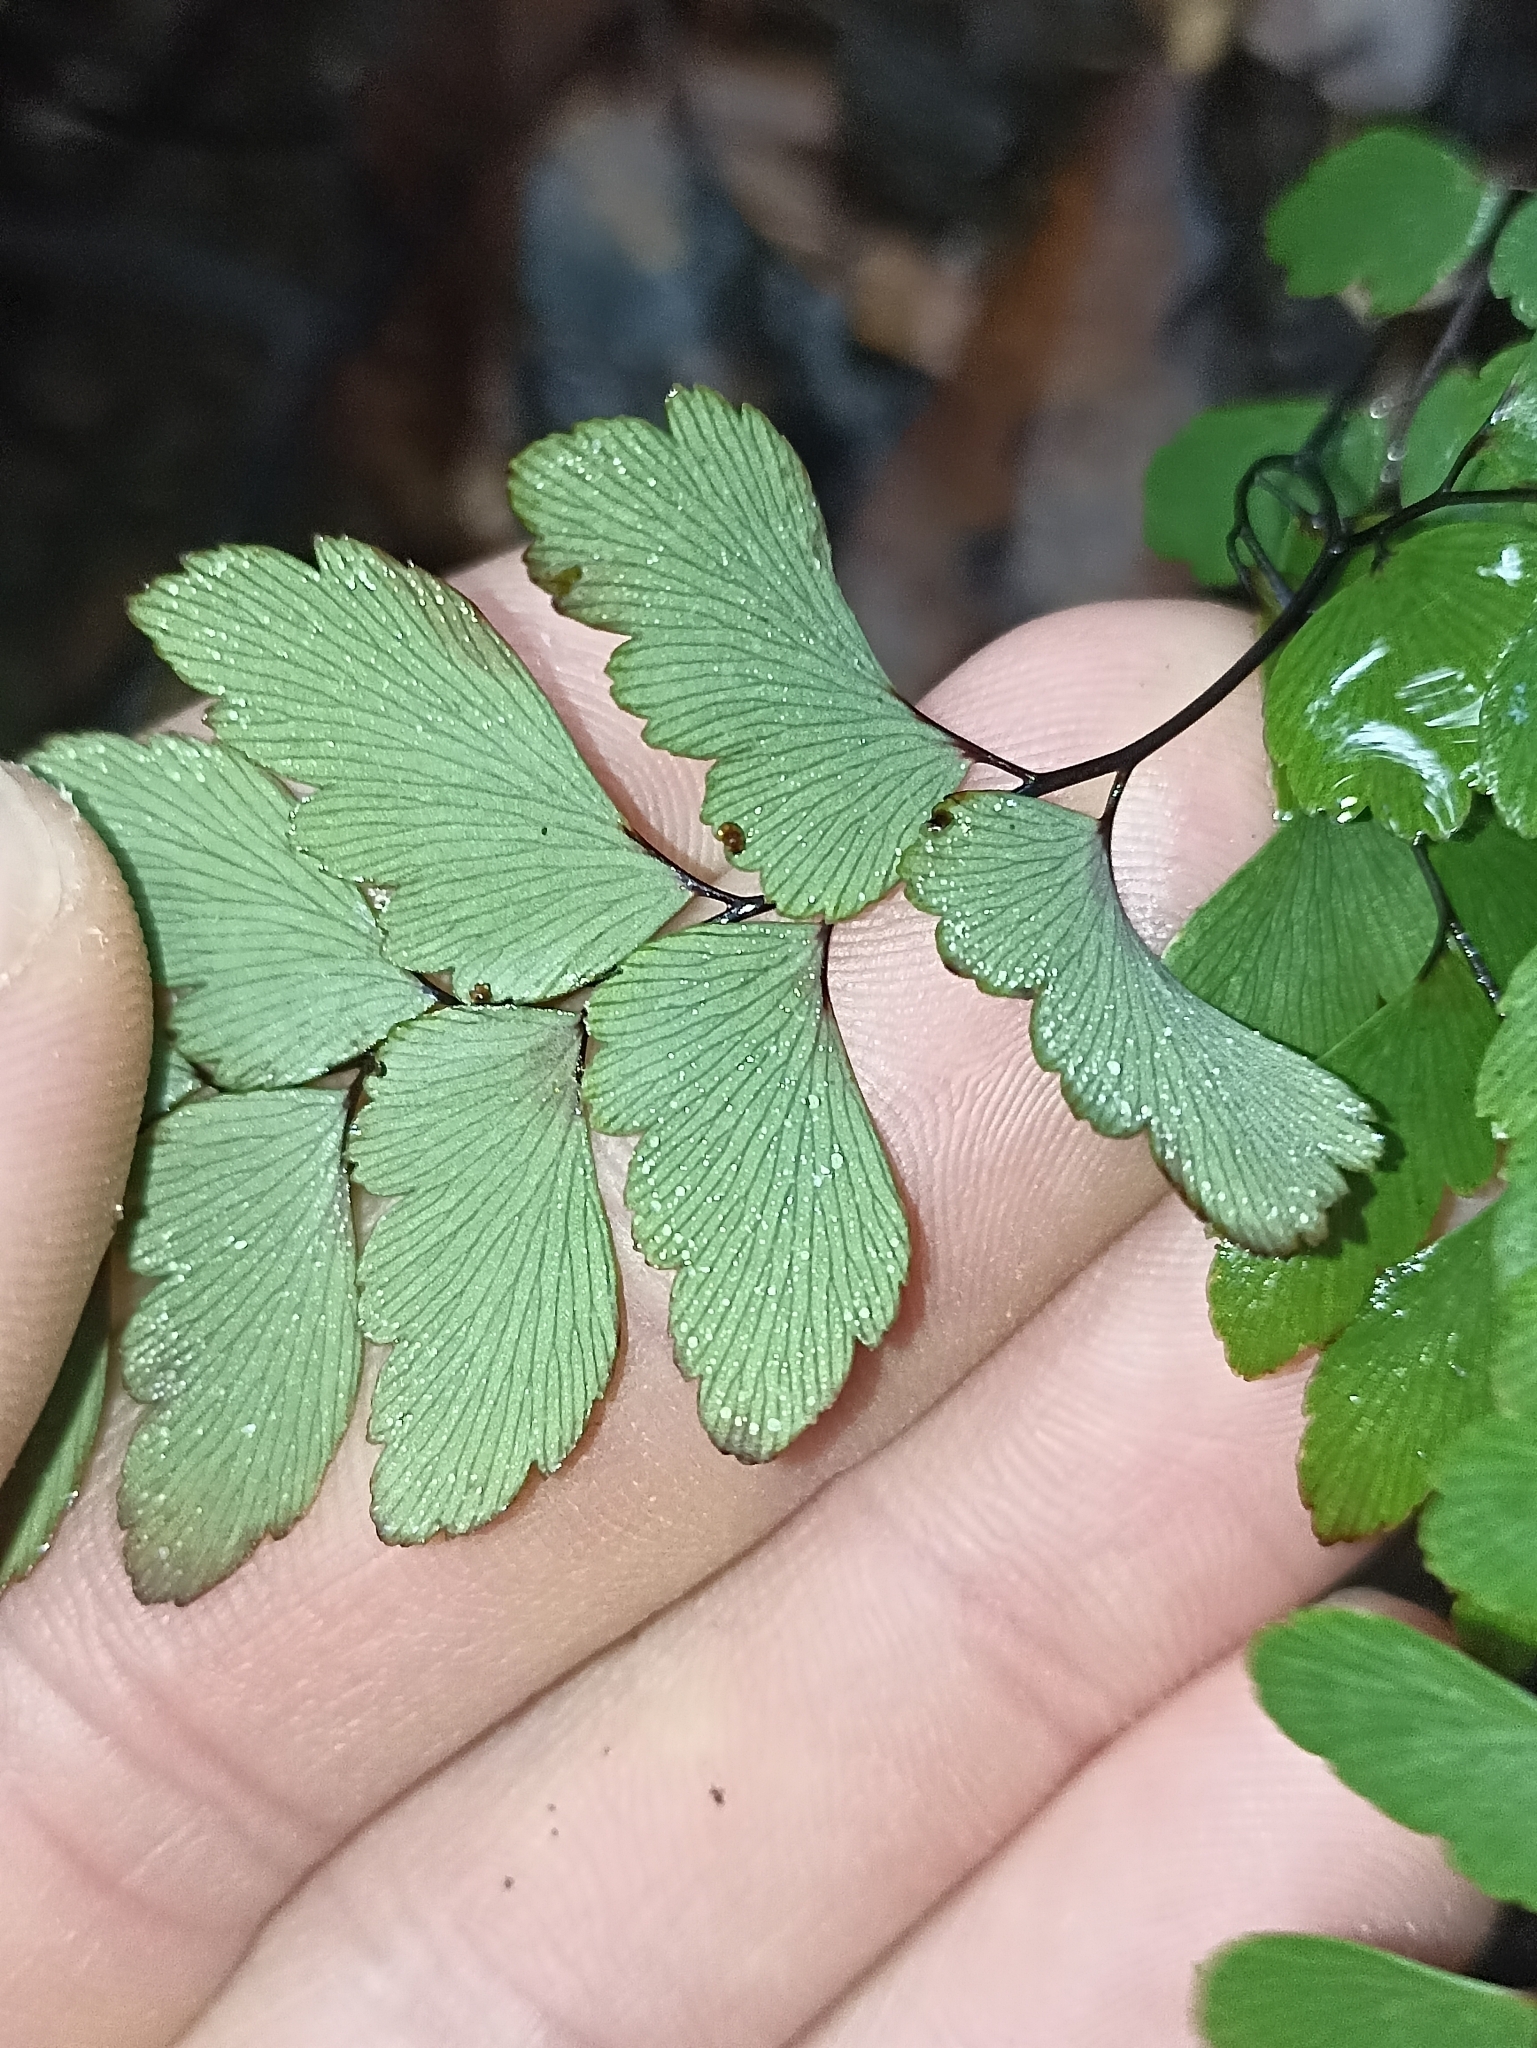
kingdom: Plantae
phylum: Tracheophyta
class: Polypodiopsida
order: Polypodiales
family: Pteridaceae
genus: Adiantum
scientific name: Adiantum cunninghamii
